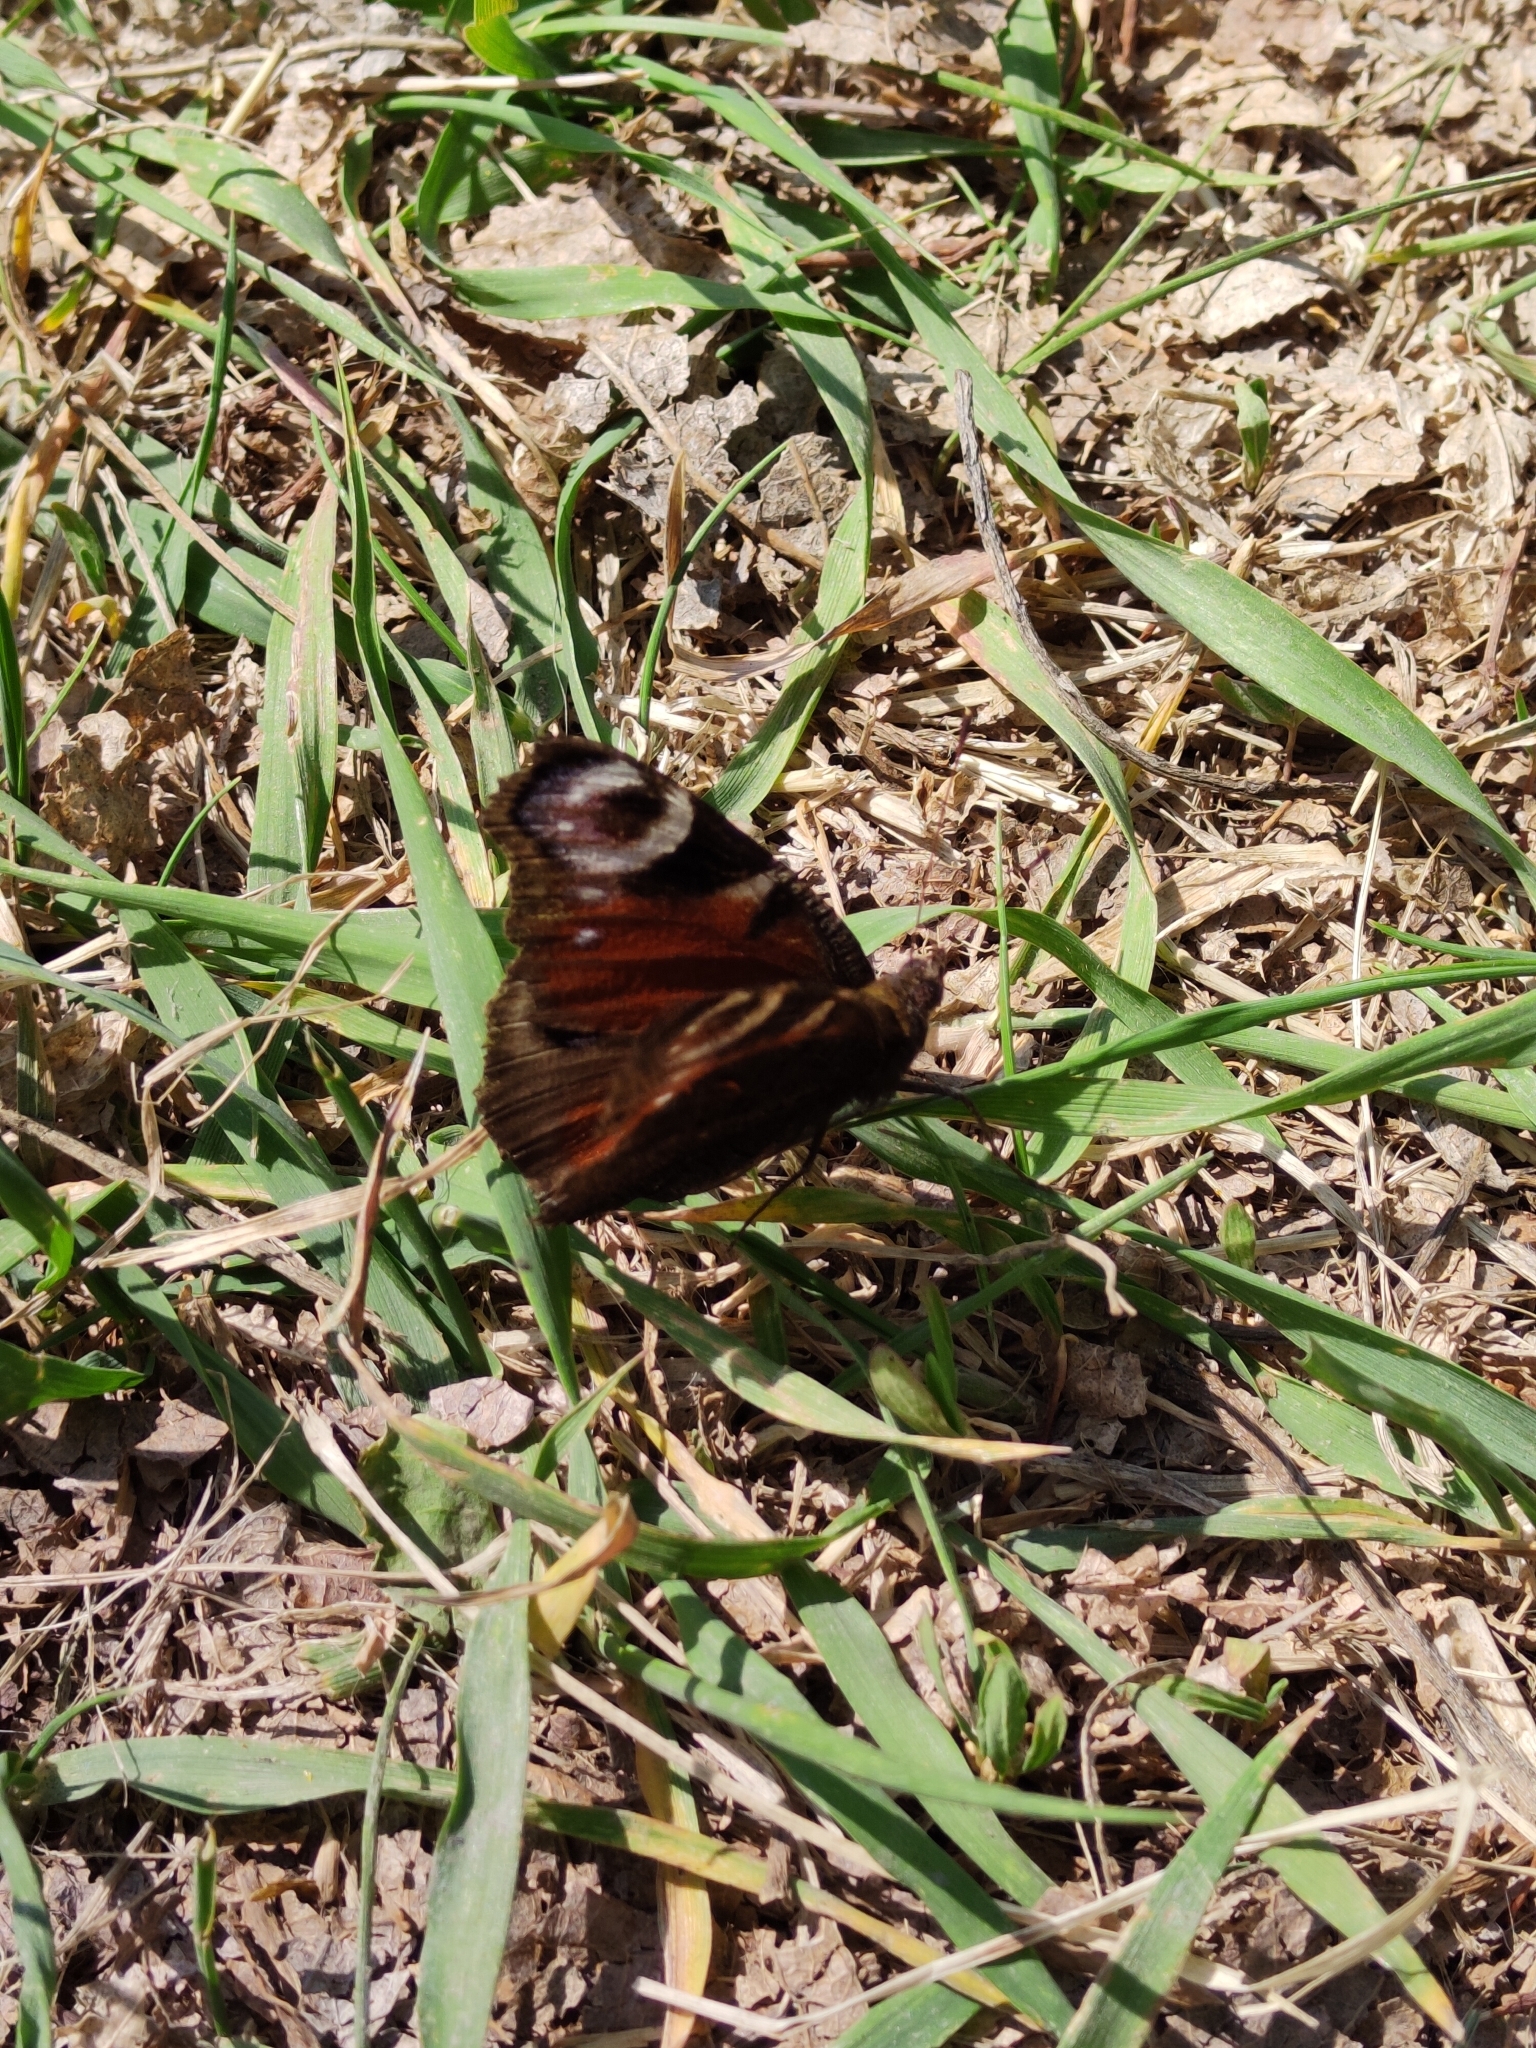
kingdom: Animalia
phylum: Arthropoda
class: Insecta
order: Lepidoptera
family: Nymphalidae
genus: Aglais
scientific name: Aglais io
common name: Peacock
